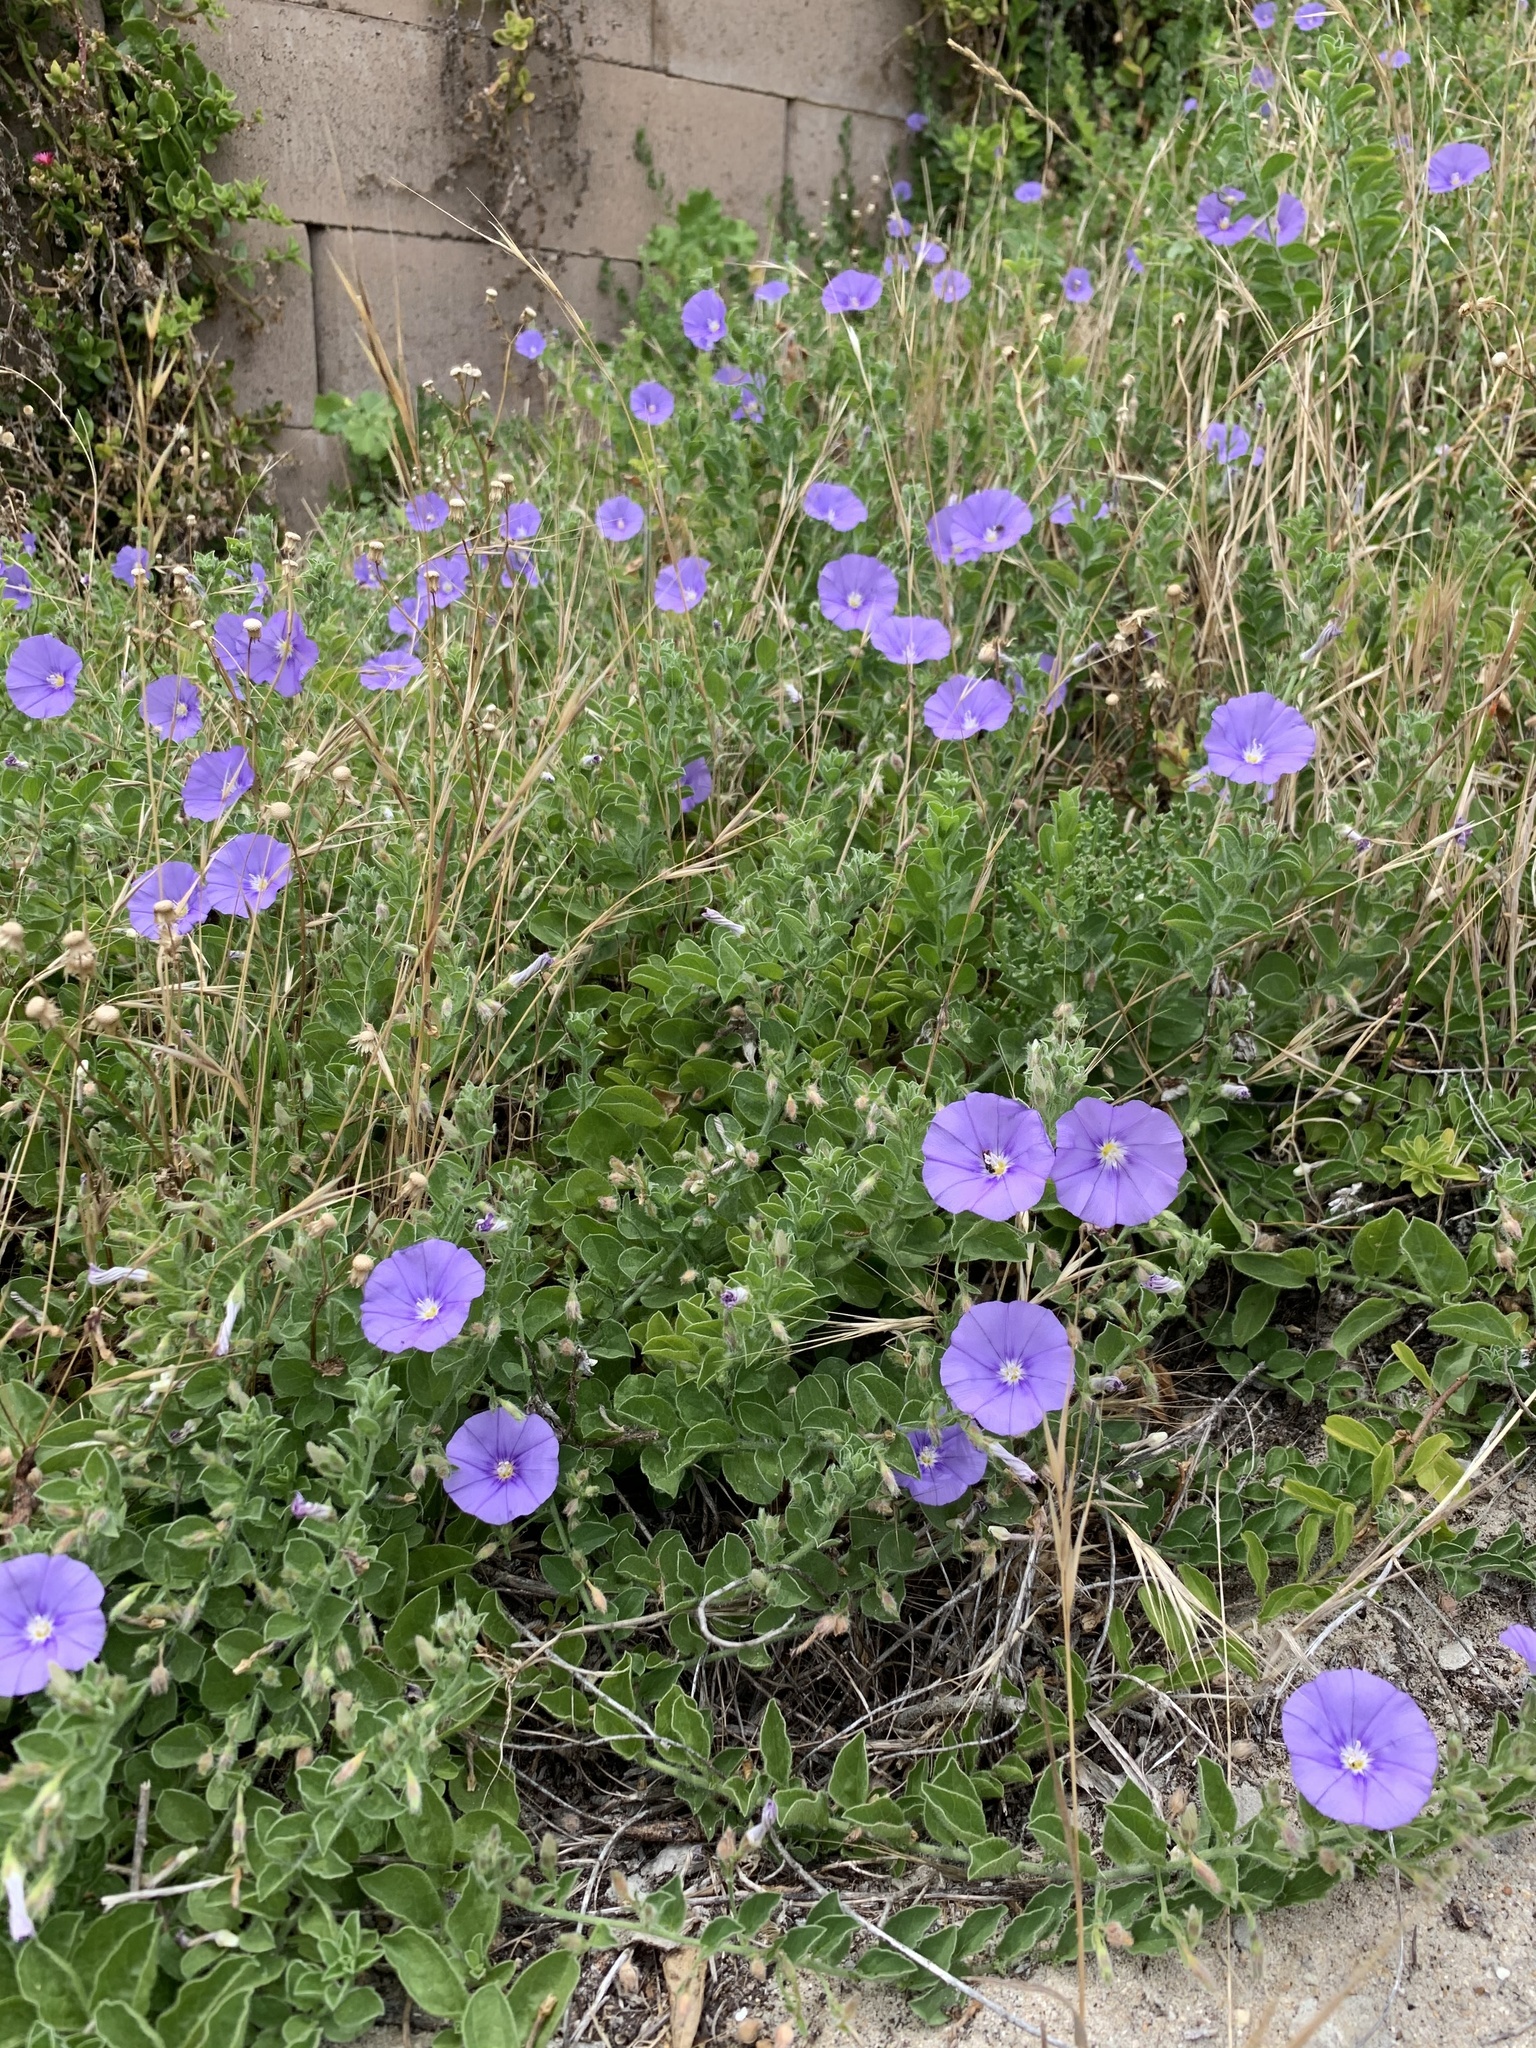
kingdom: Plantae
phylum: Tracheophyta
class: Magnoliopsida
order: Solanales
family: Convolvulaceae
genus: Convolvulus
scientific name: Convolvulus sabatius
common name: Ground blue-convolvulus
